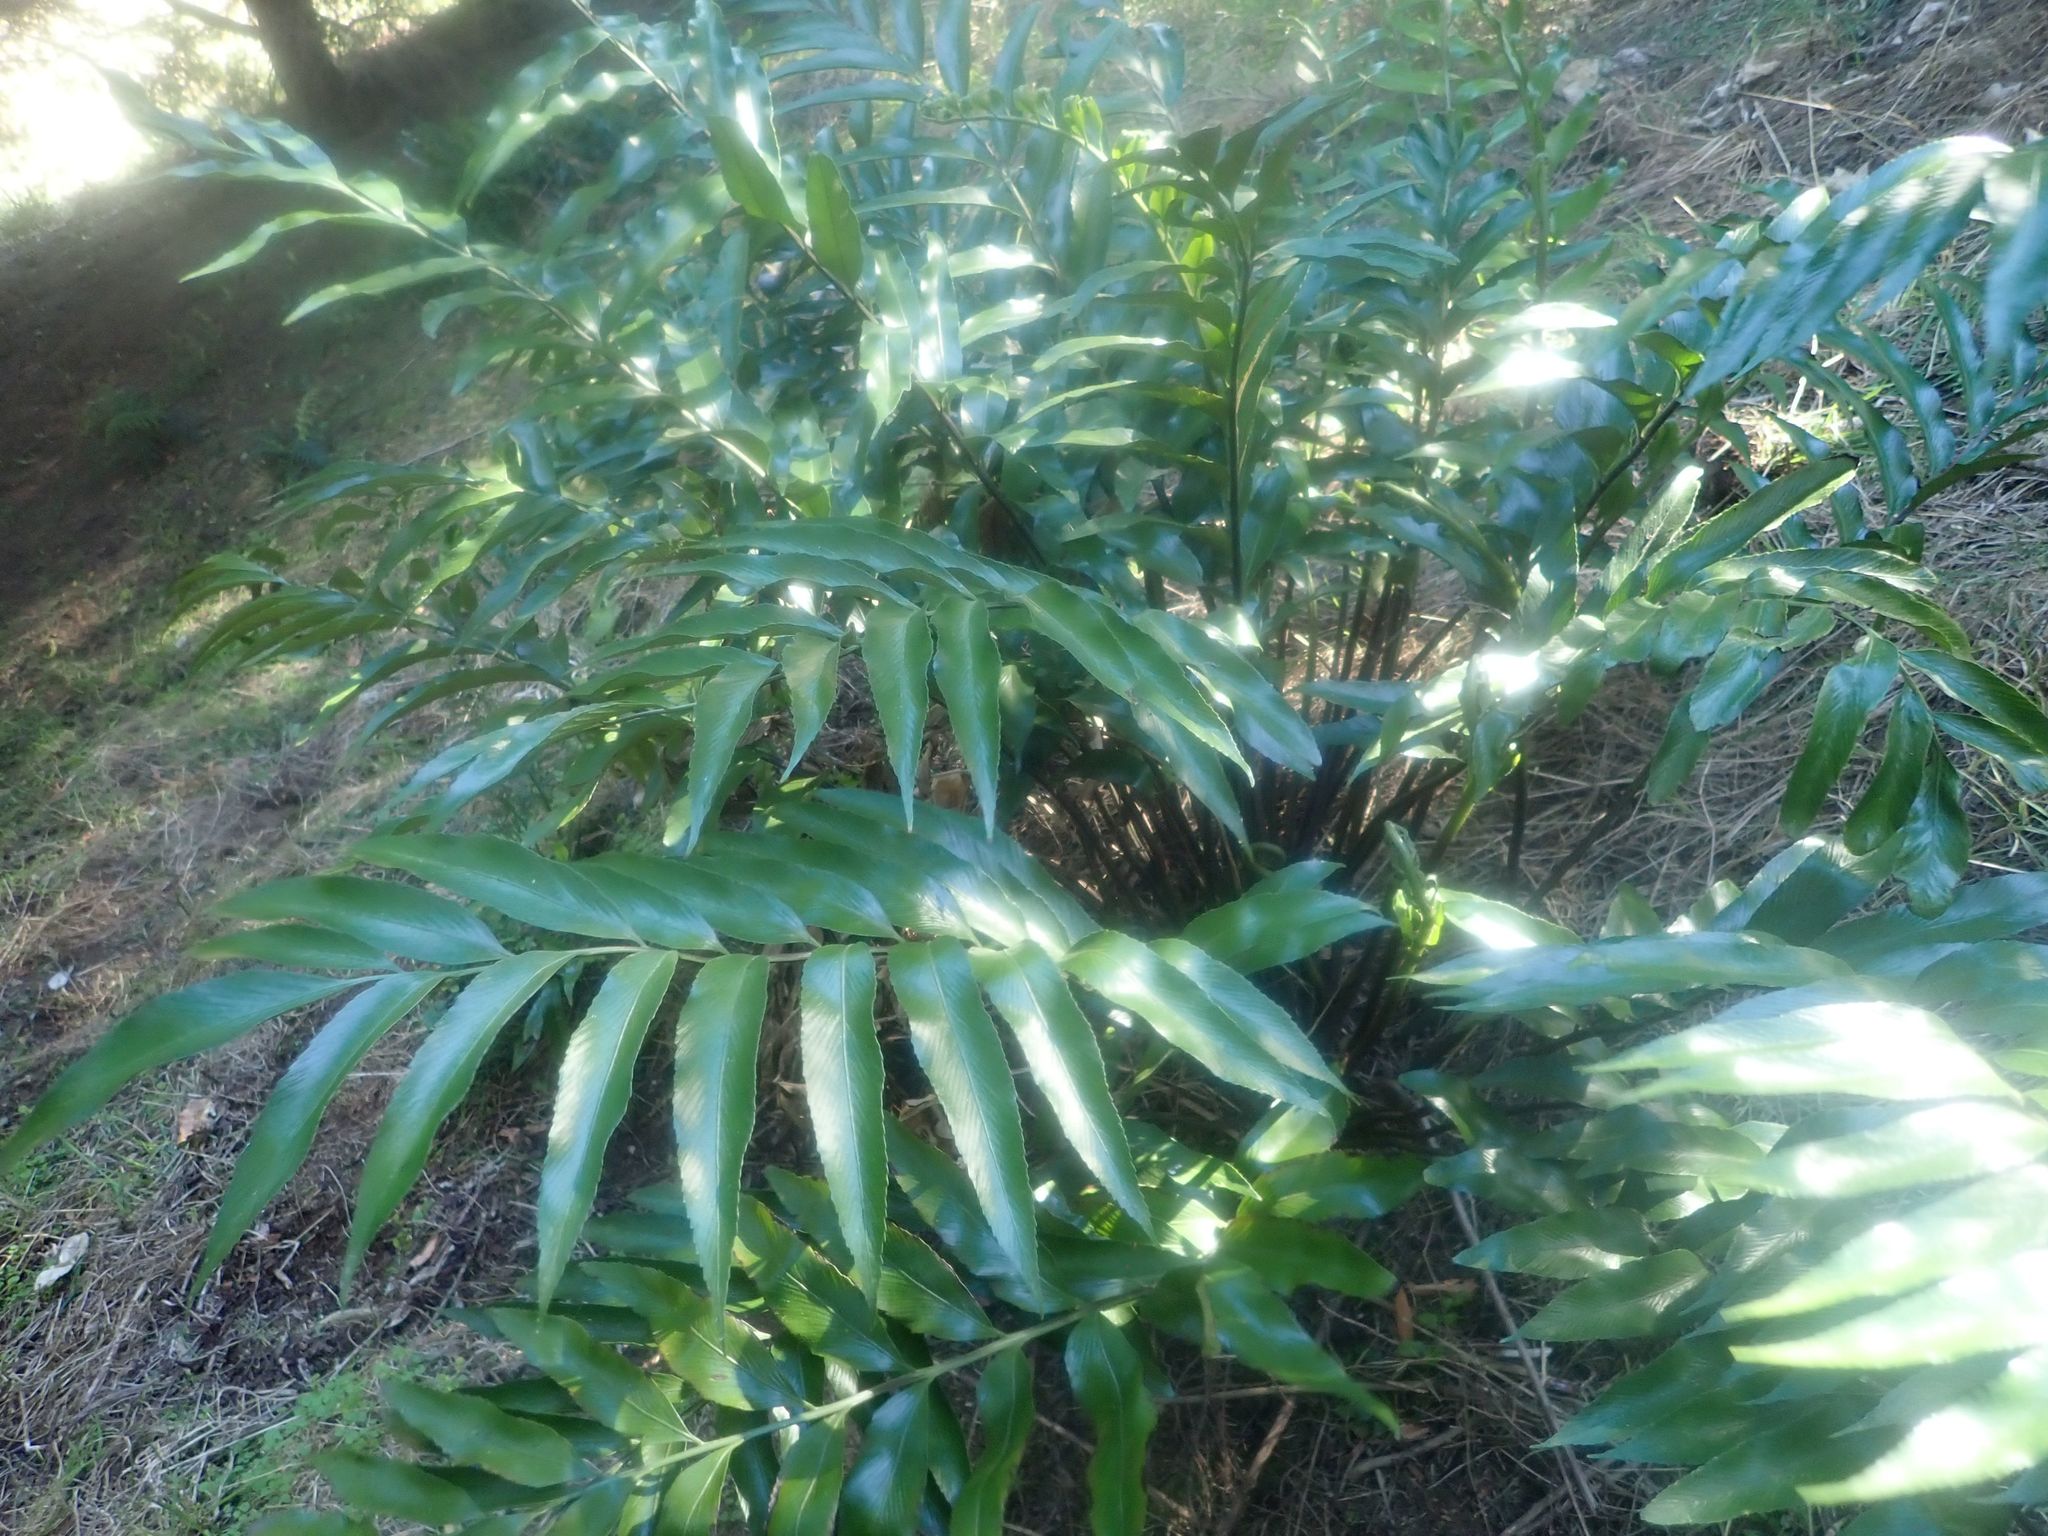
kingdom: Plantae
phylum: Tracheophyta
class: Polypodiopsida
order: Polypodiales
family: Aspleniaceae
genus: Asplenium
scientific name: Asplenium oblongifolium
